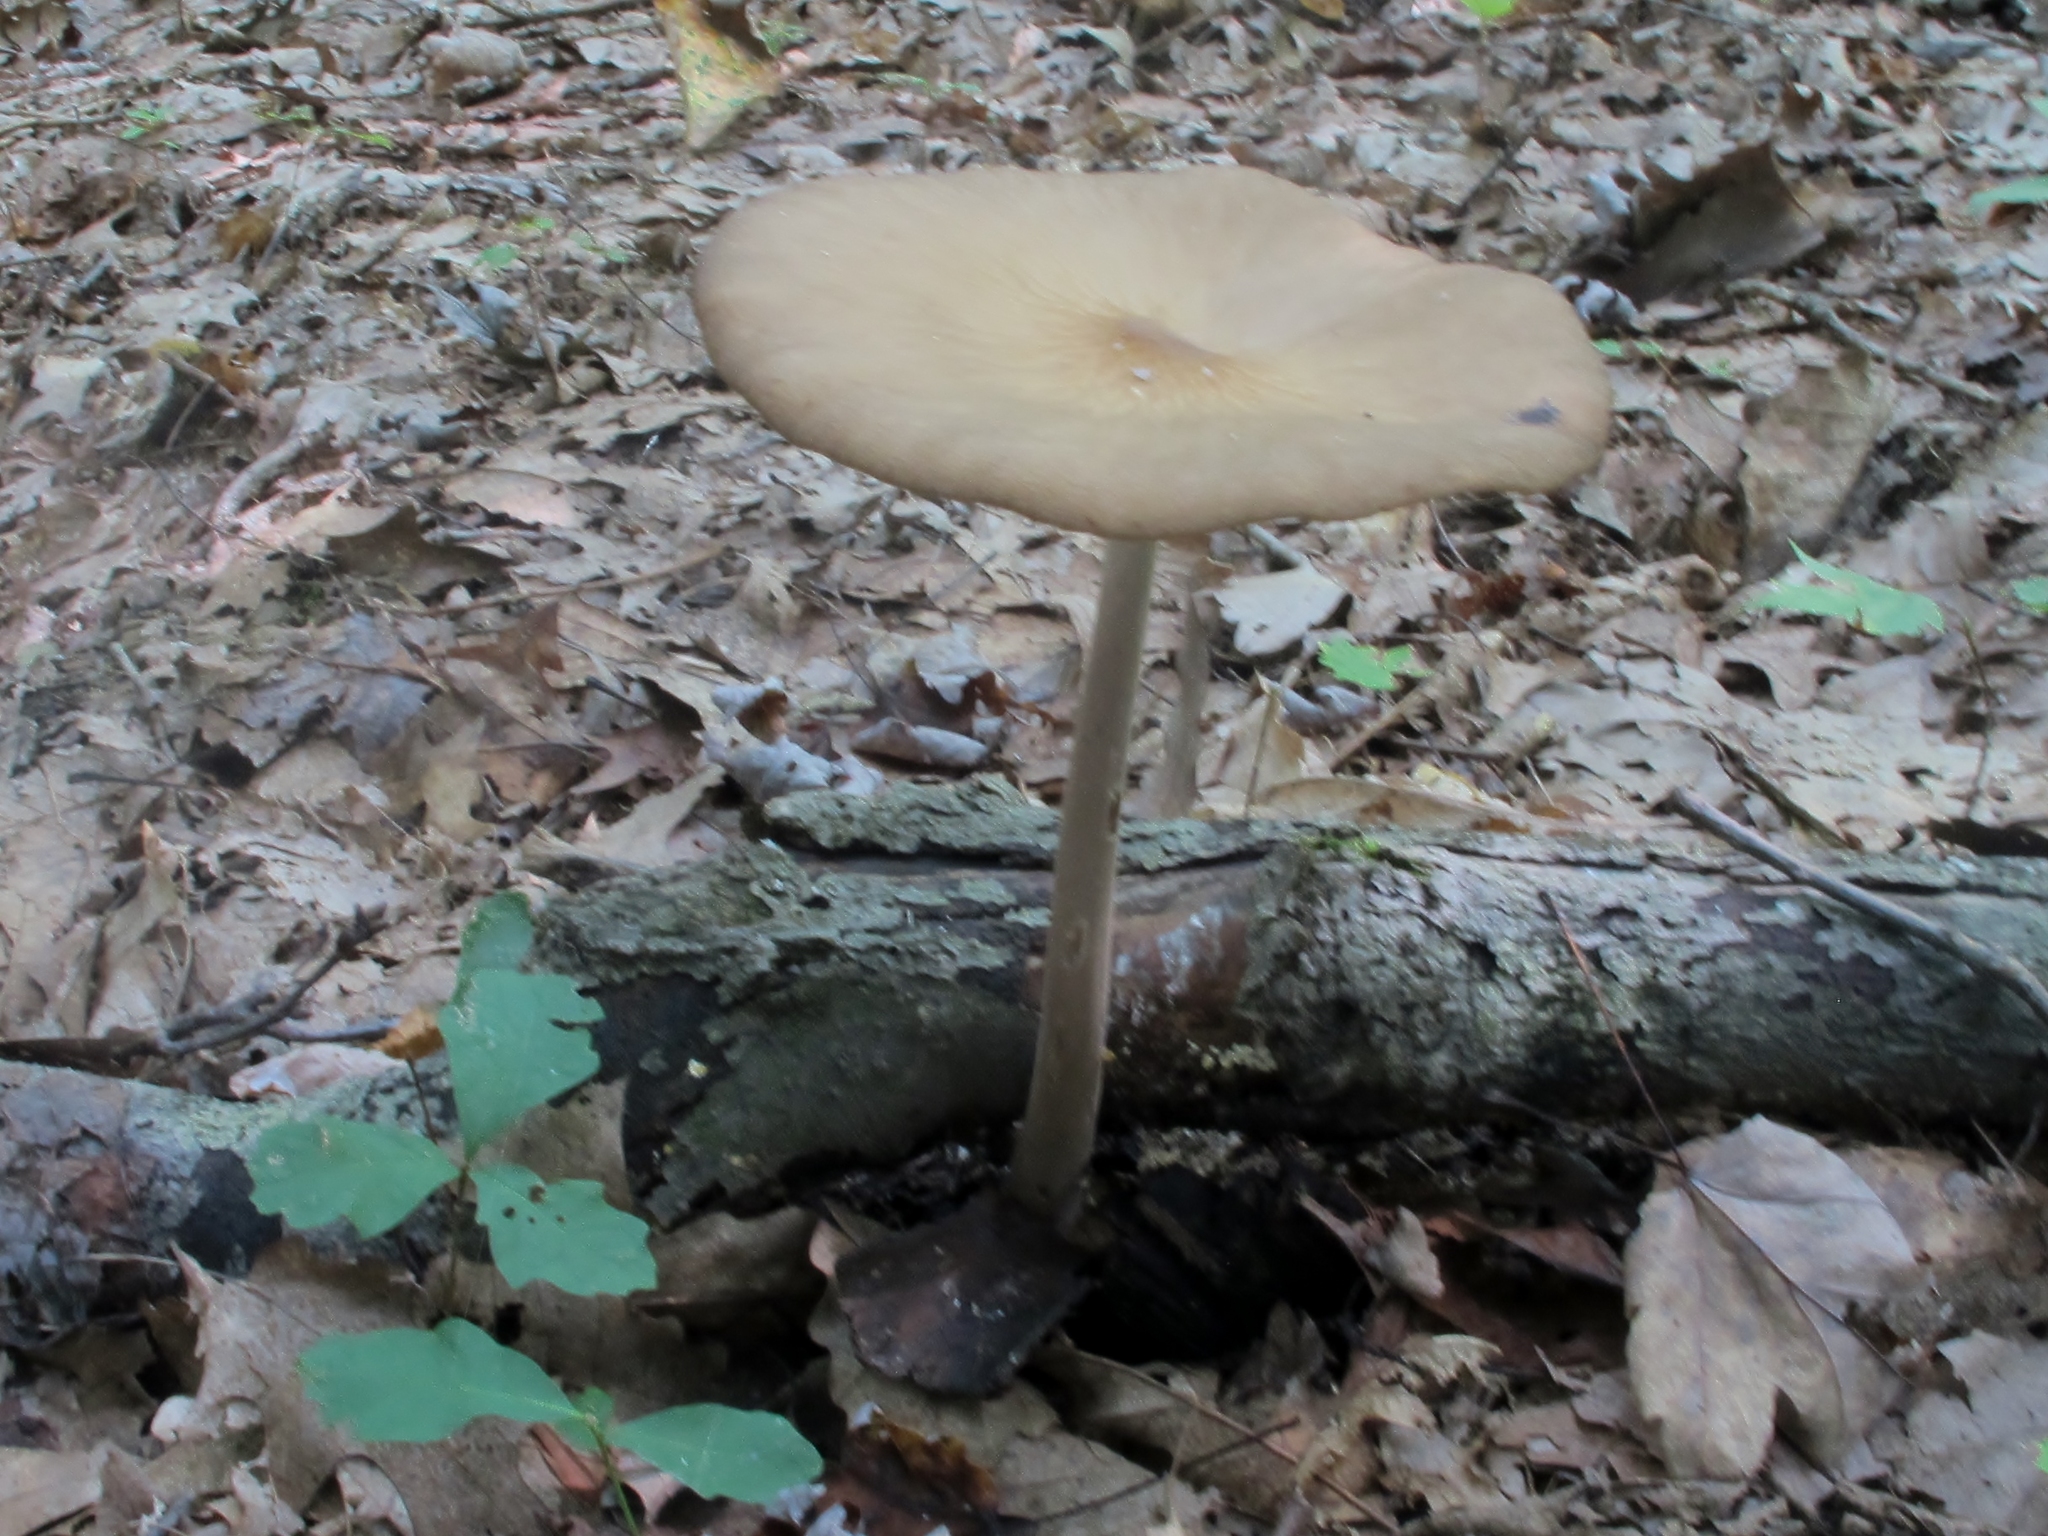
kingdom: Fungi
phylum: Basidiomycota
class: Agaricomycetes
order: Agaricales
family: Physalacriaceae
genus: Hymenopellis
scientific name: Hymenopellis furfuracea
